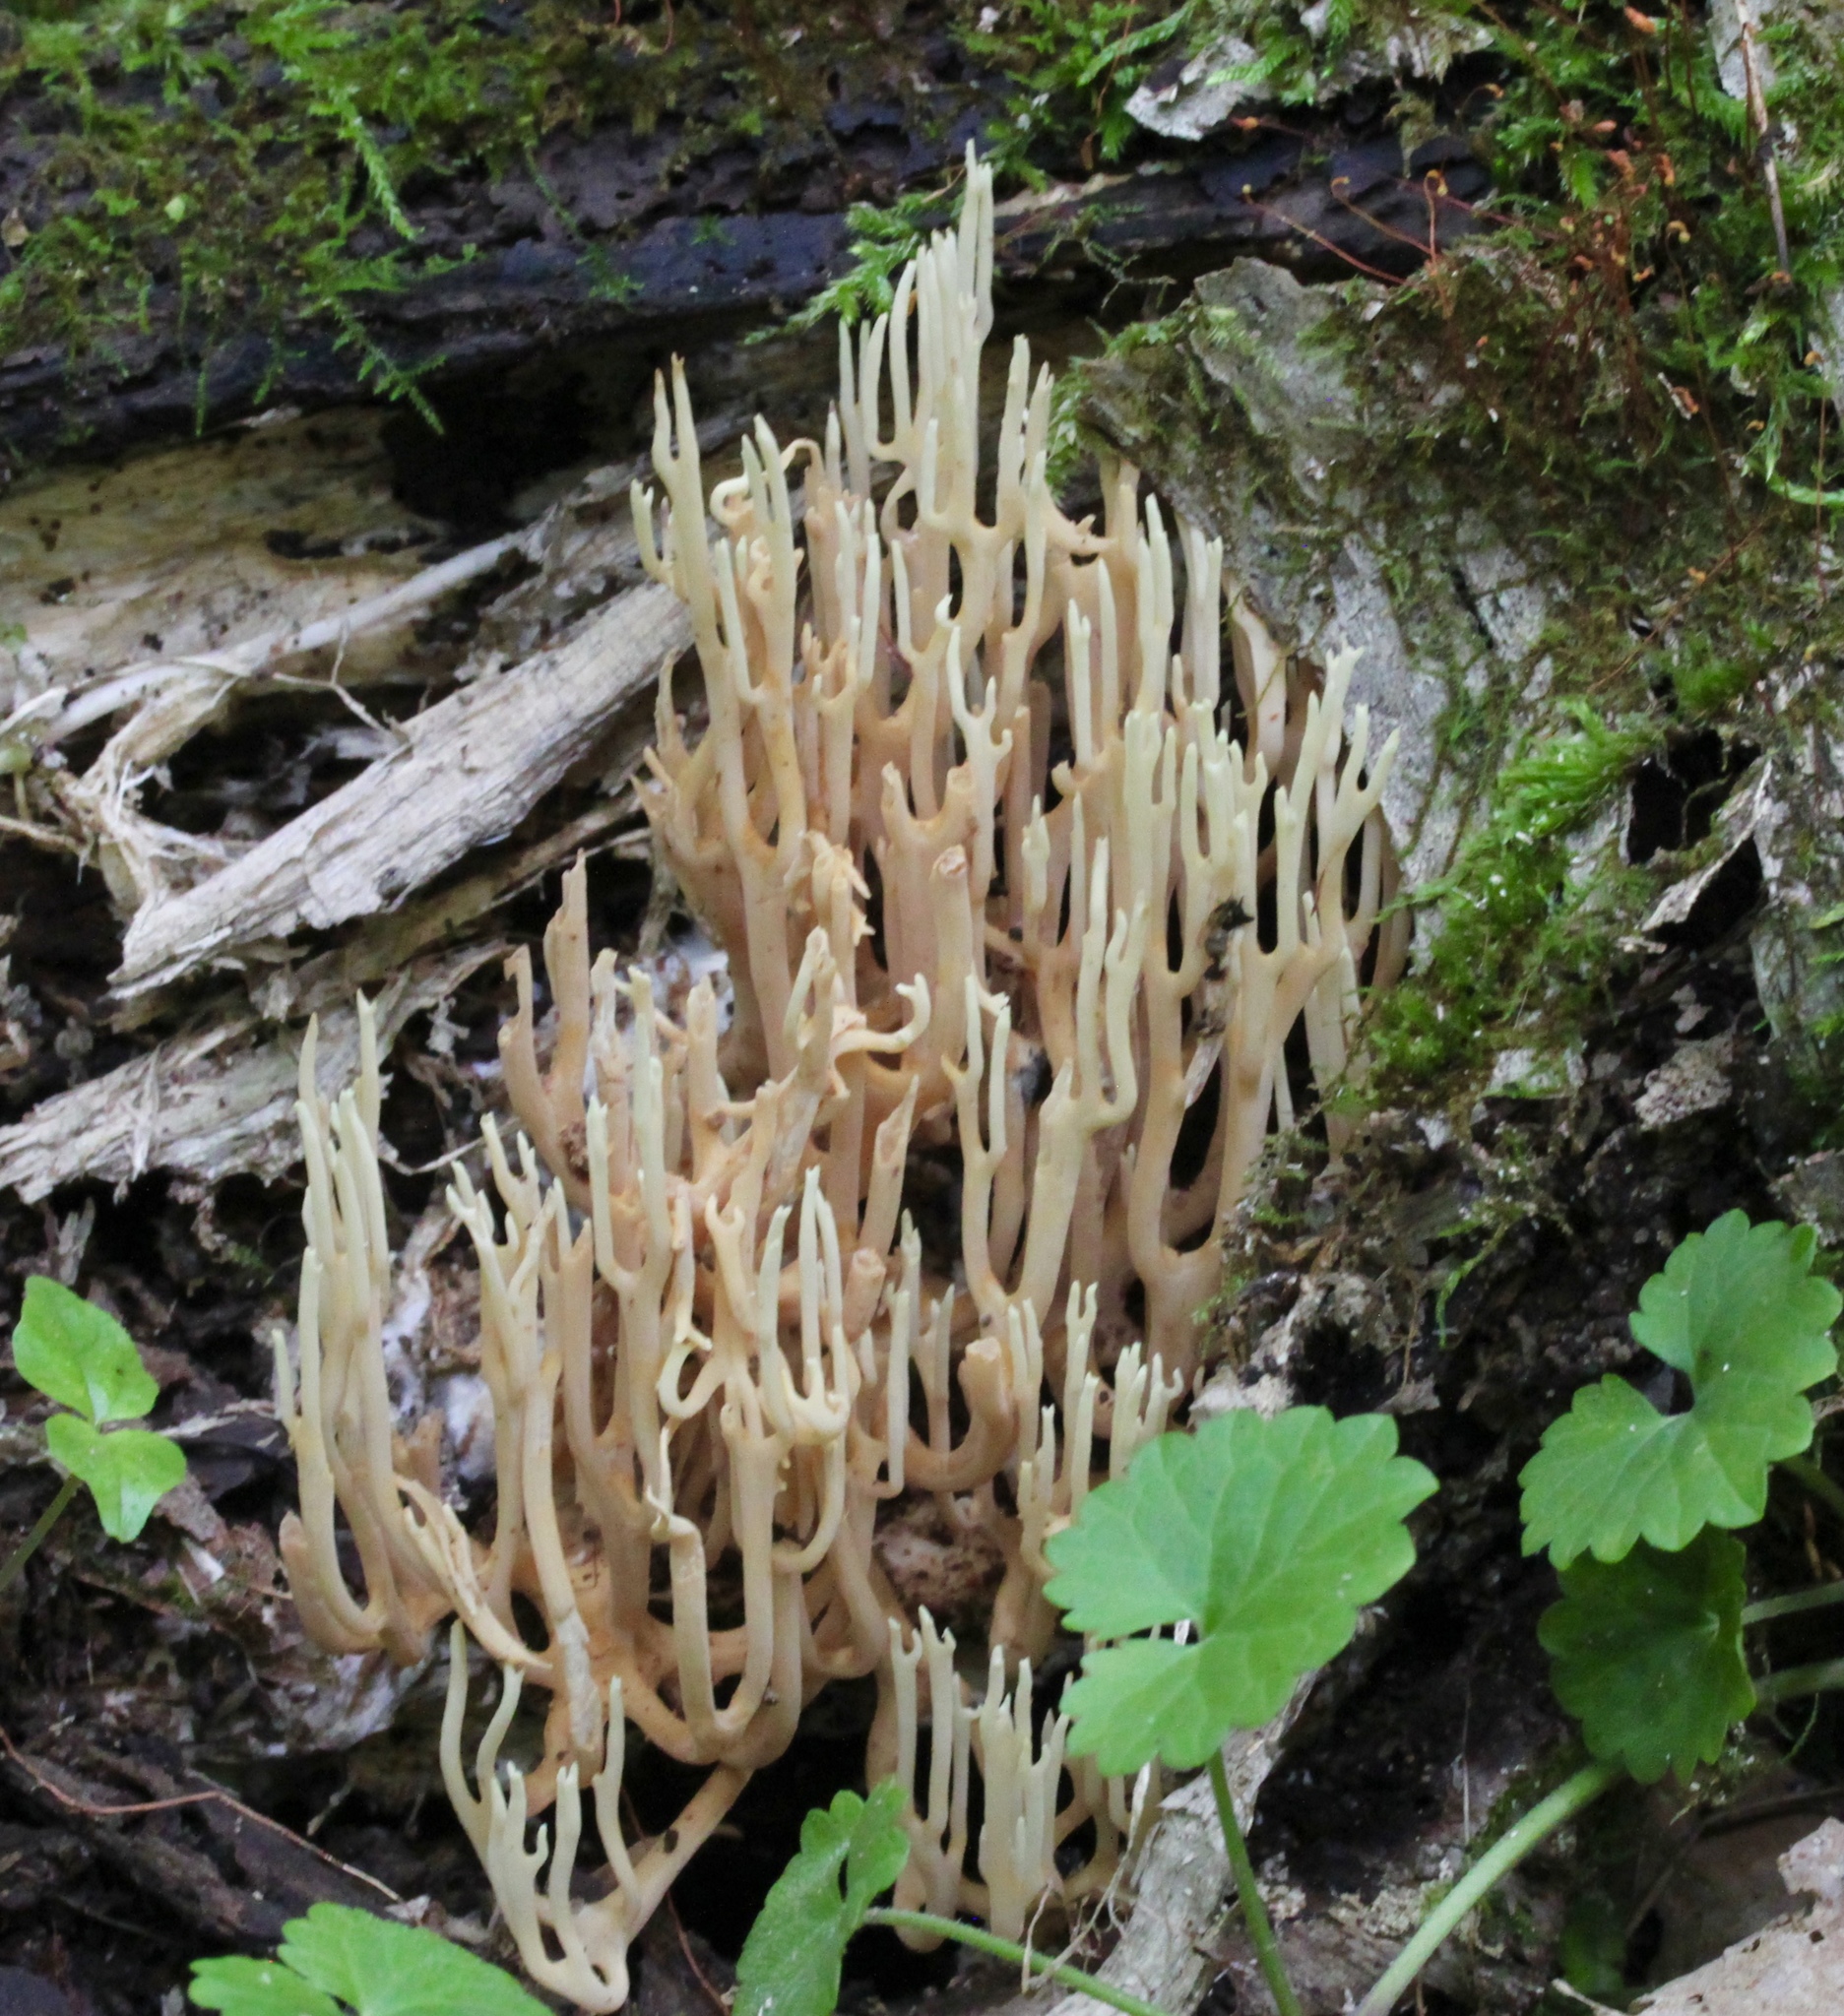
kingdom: Fungi
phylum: Basidiomycota
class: Agaricomycetes
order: Gomphales
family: Gomphaceae
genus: Ramaria
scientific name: Ramaria stricta
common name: Upright coral
